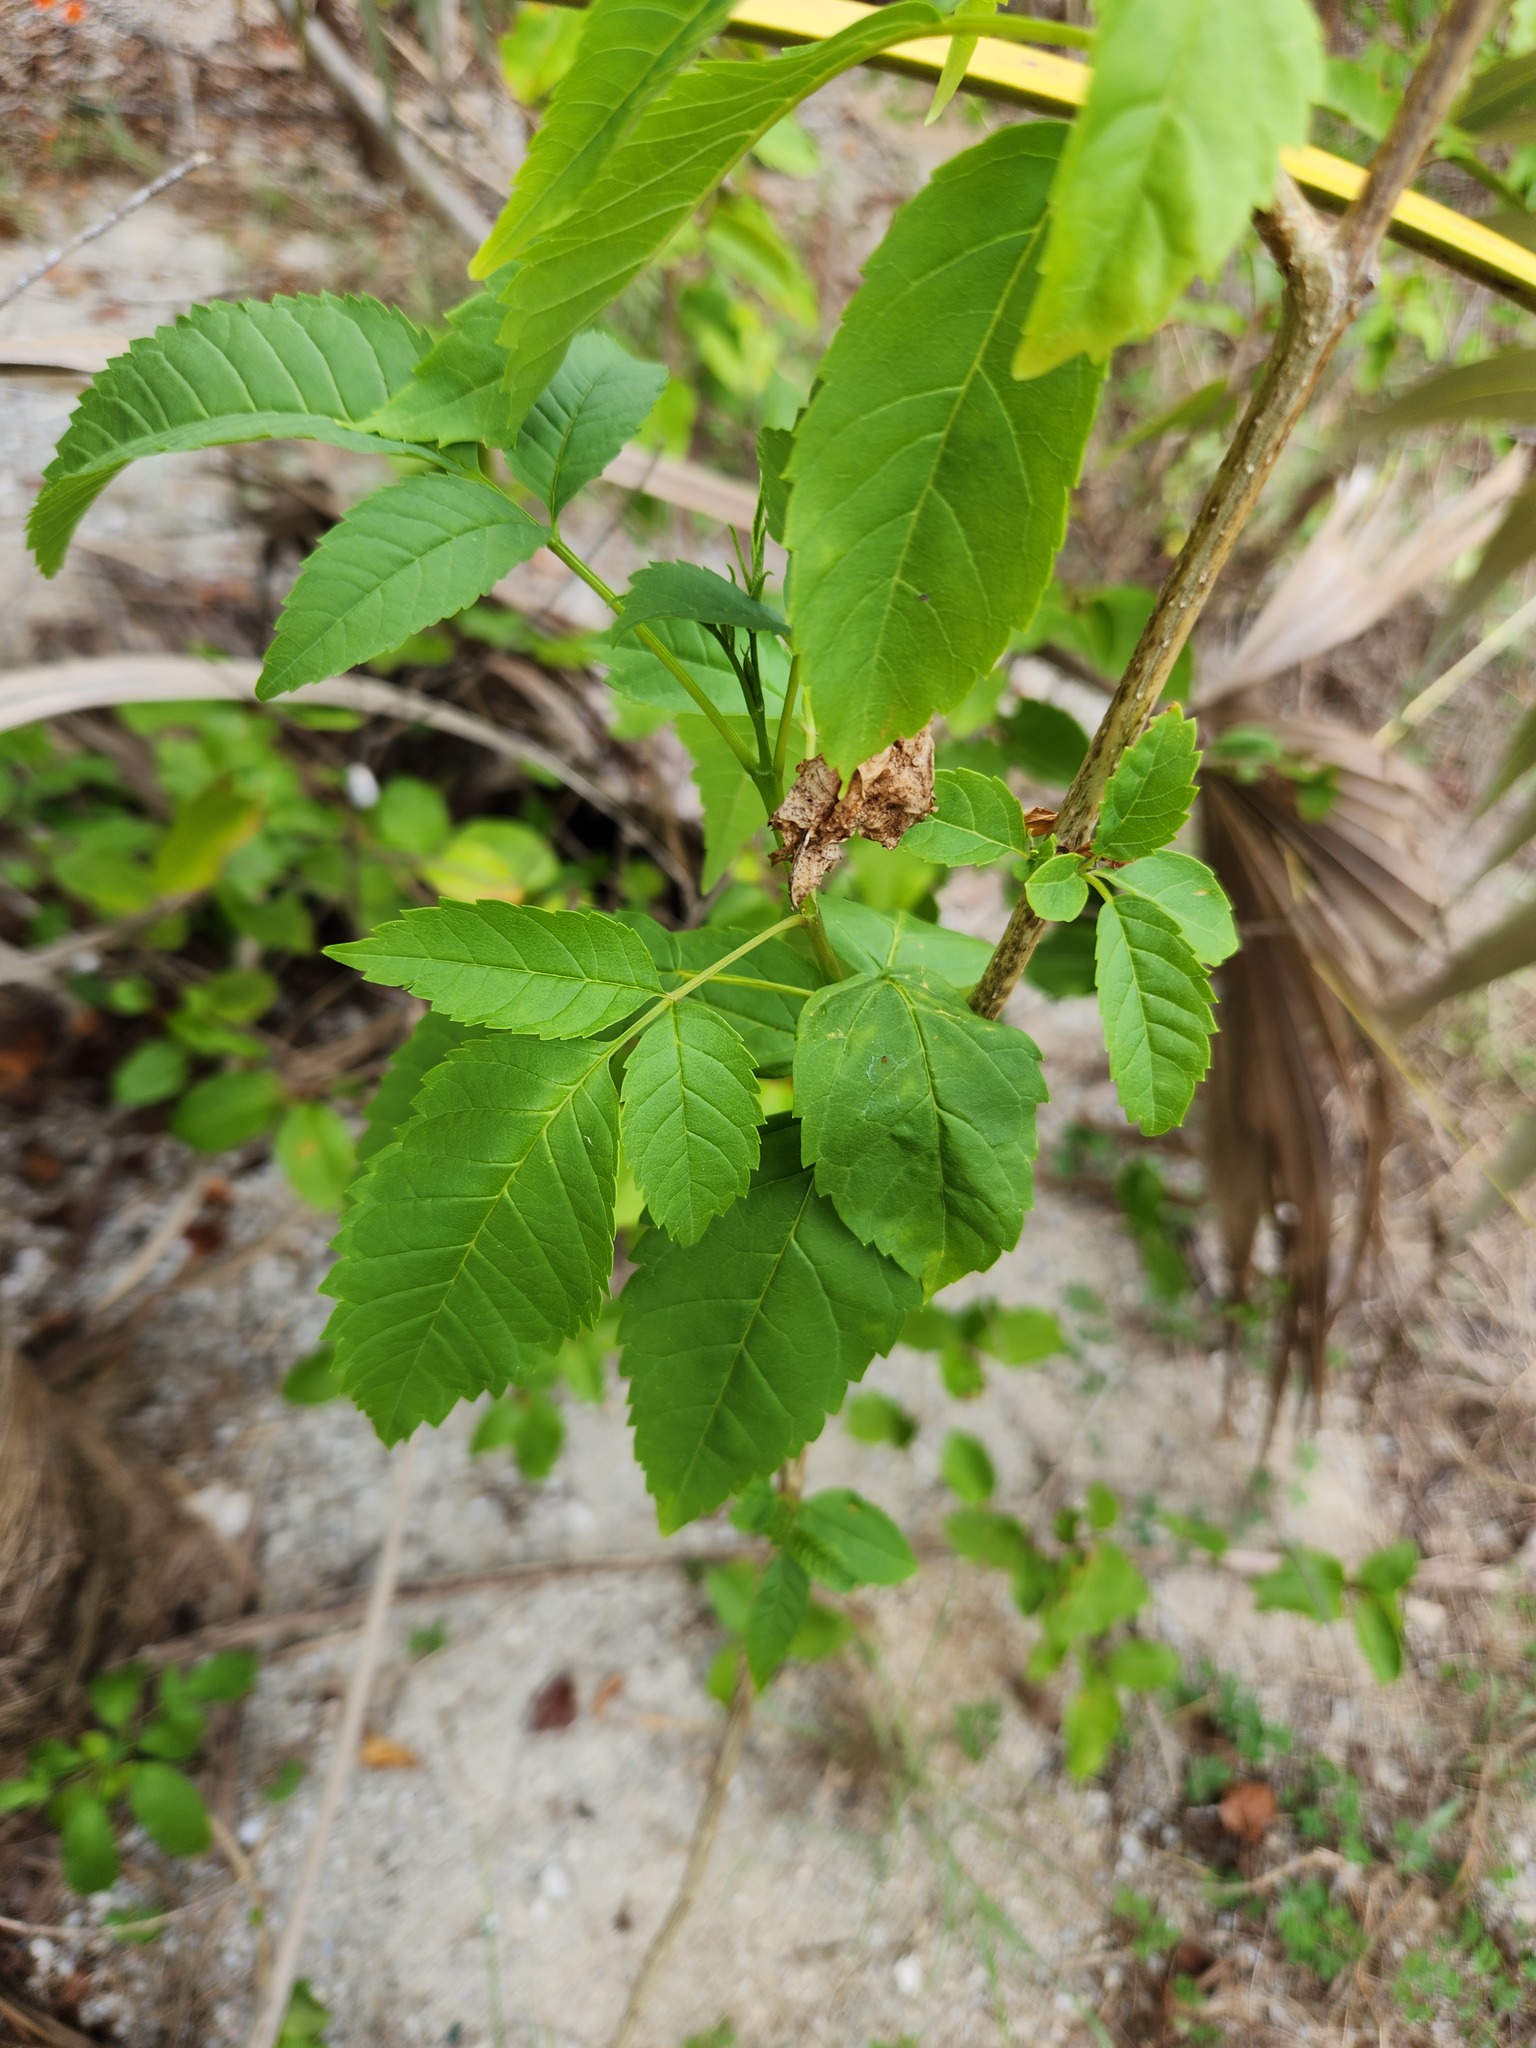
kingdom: Plantae
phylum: Tracheophyta
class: Magnoliopsida
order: Lamiales
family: Bignoniaceae
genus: Tecoma
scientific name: Tecoma stans
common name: Yellow trumpetbush
